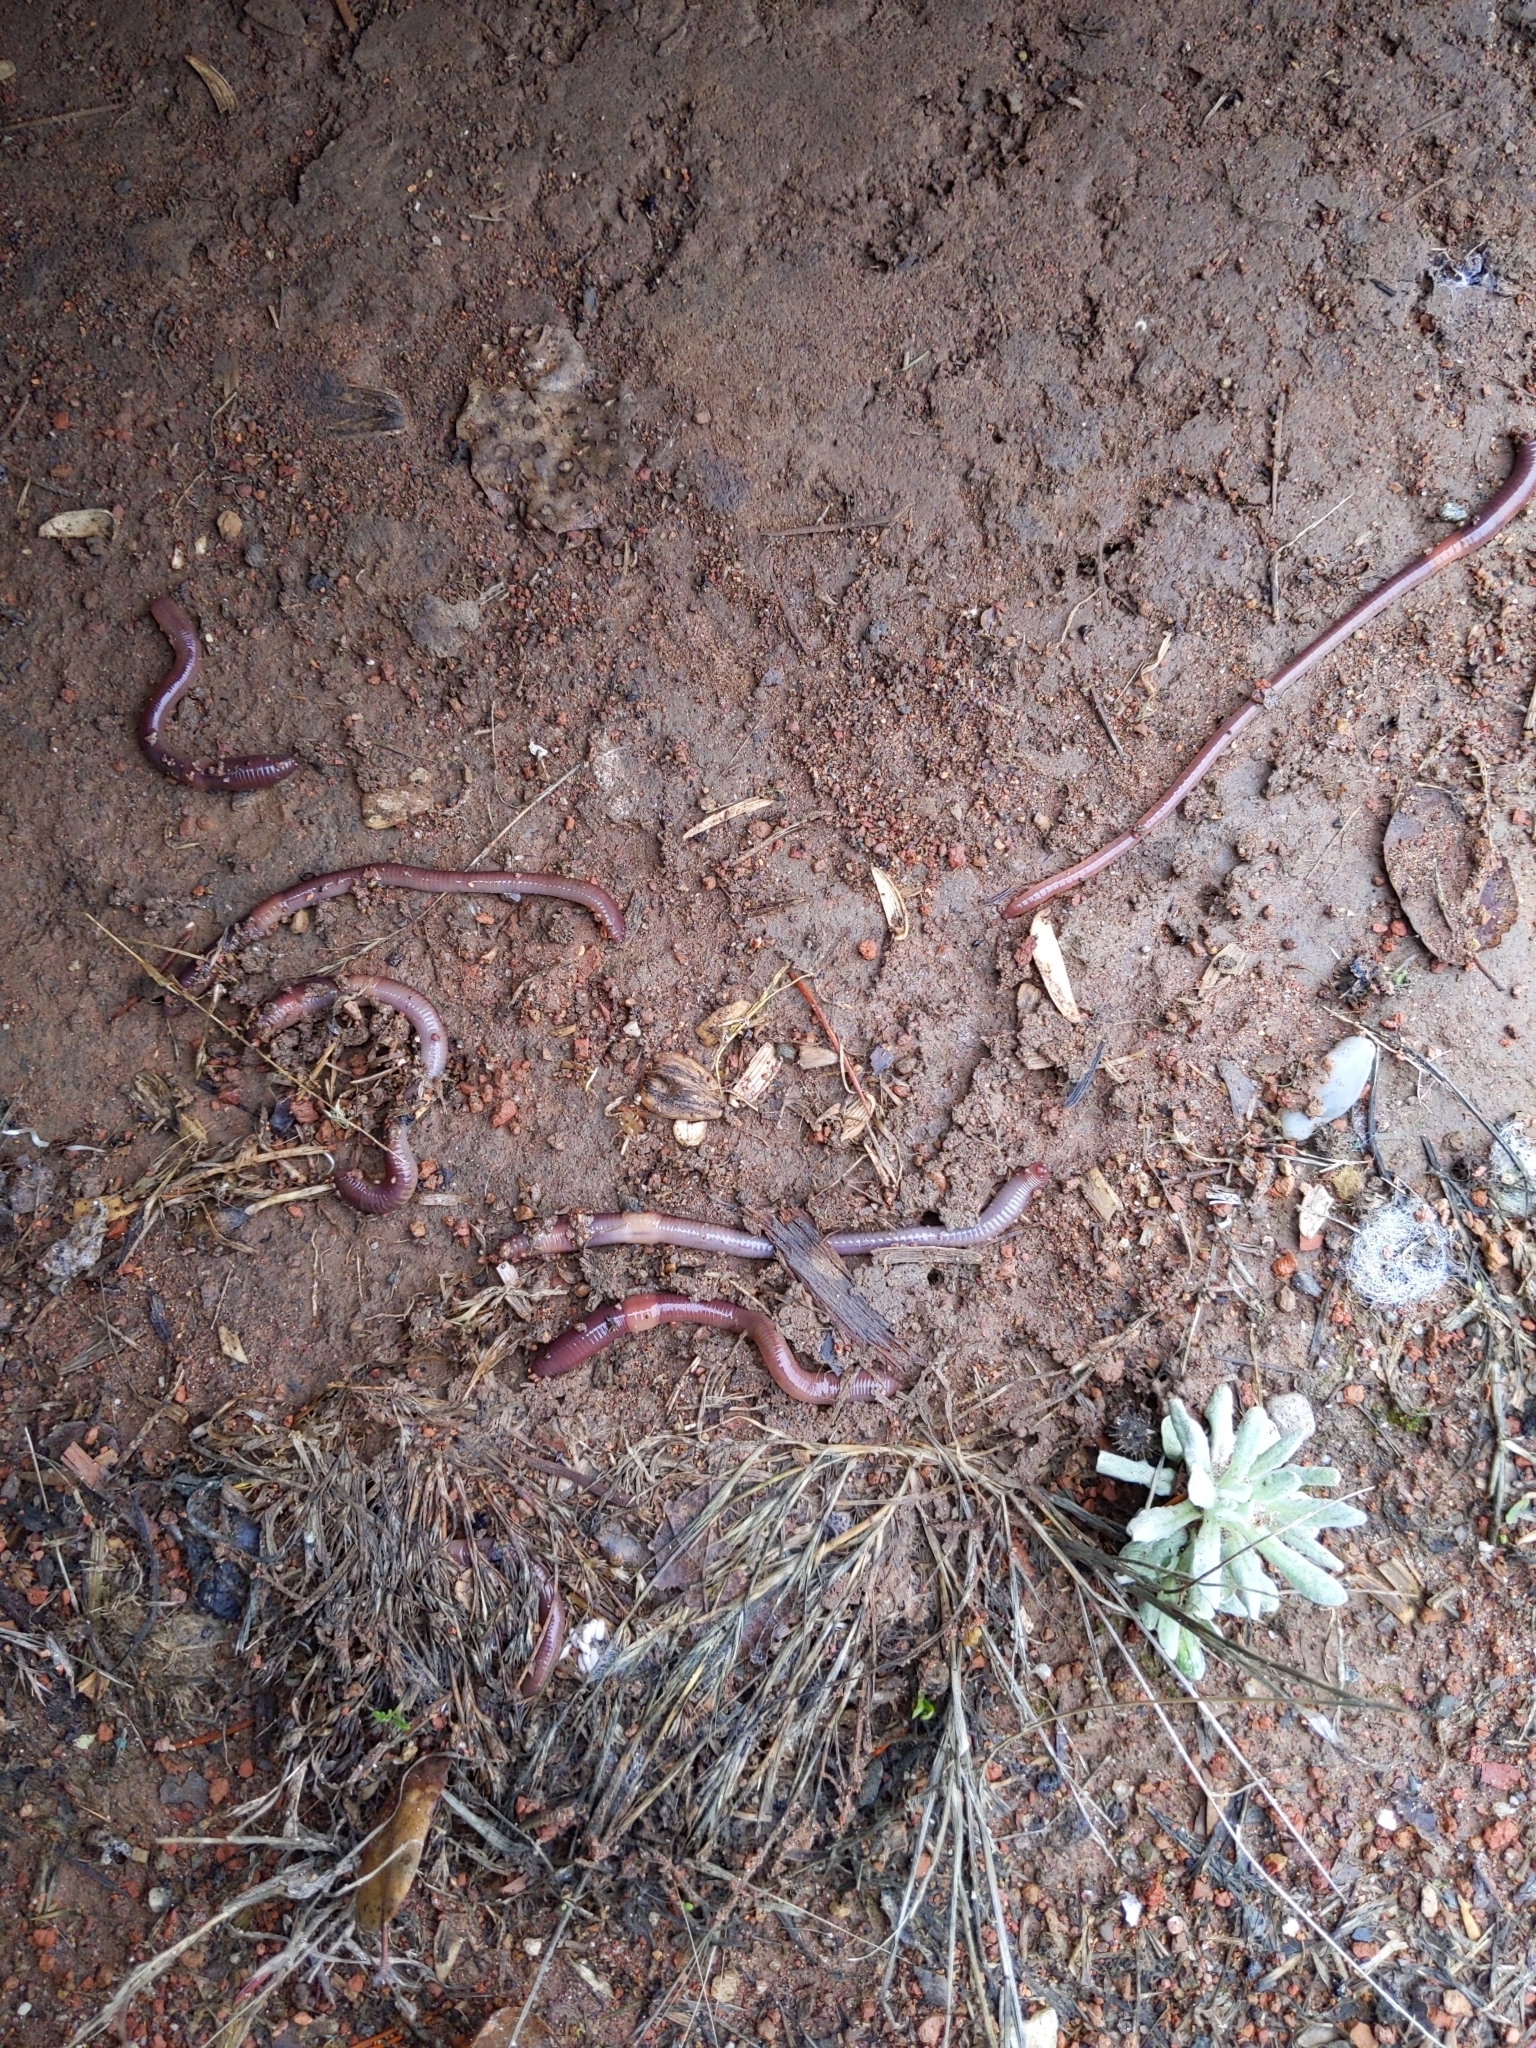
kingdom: Animalia
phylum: Annelida
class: Clitellata
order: Crassiclitellata
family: Lumbricidae
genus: Lumbricus
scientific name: Lumbricus terrestris
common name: Common earthworm
